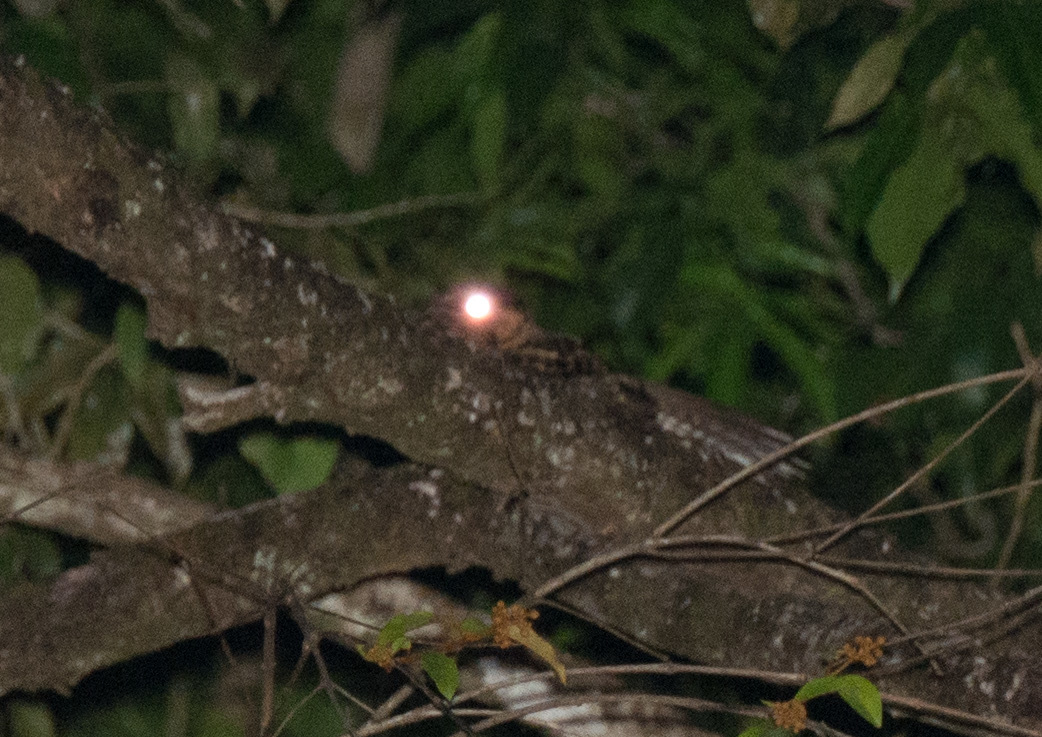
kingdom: Animalia
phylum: Chordata
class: Aves
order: Caprimulgiformes
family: Caprimulgidae
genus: Antrostomus
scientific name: Antrostomus rufus
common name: Rufous nightjar
